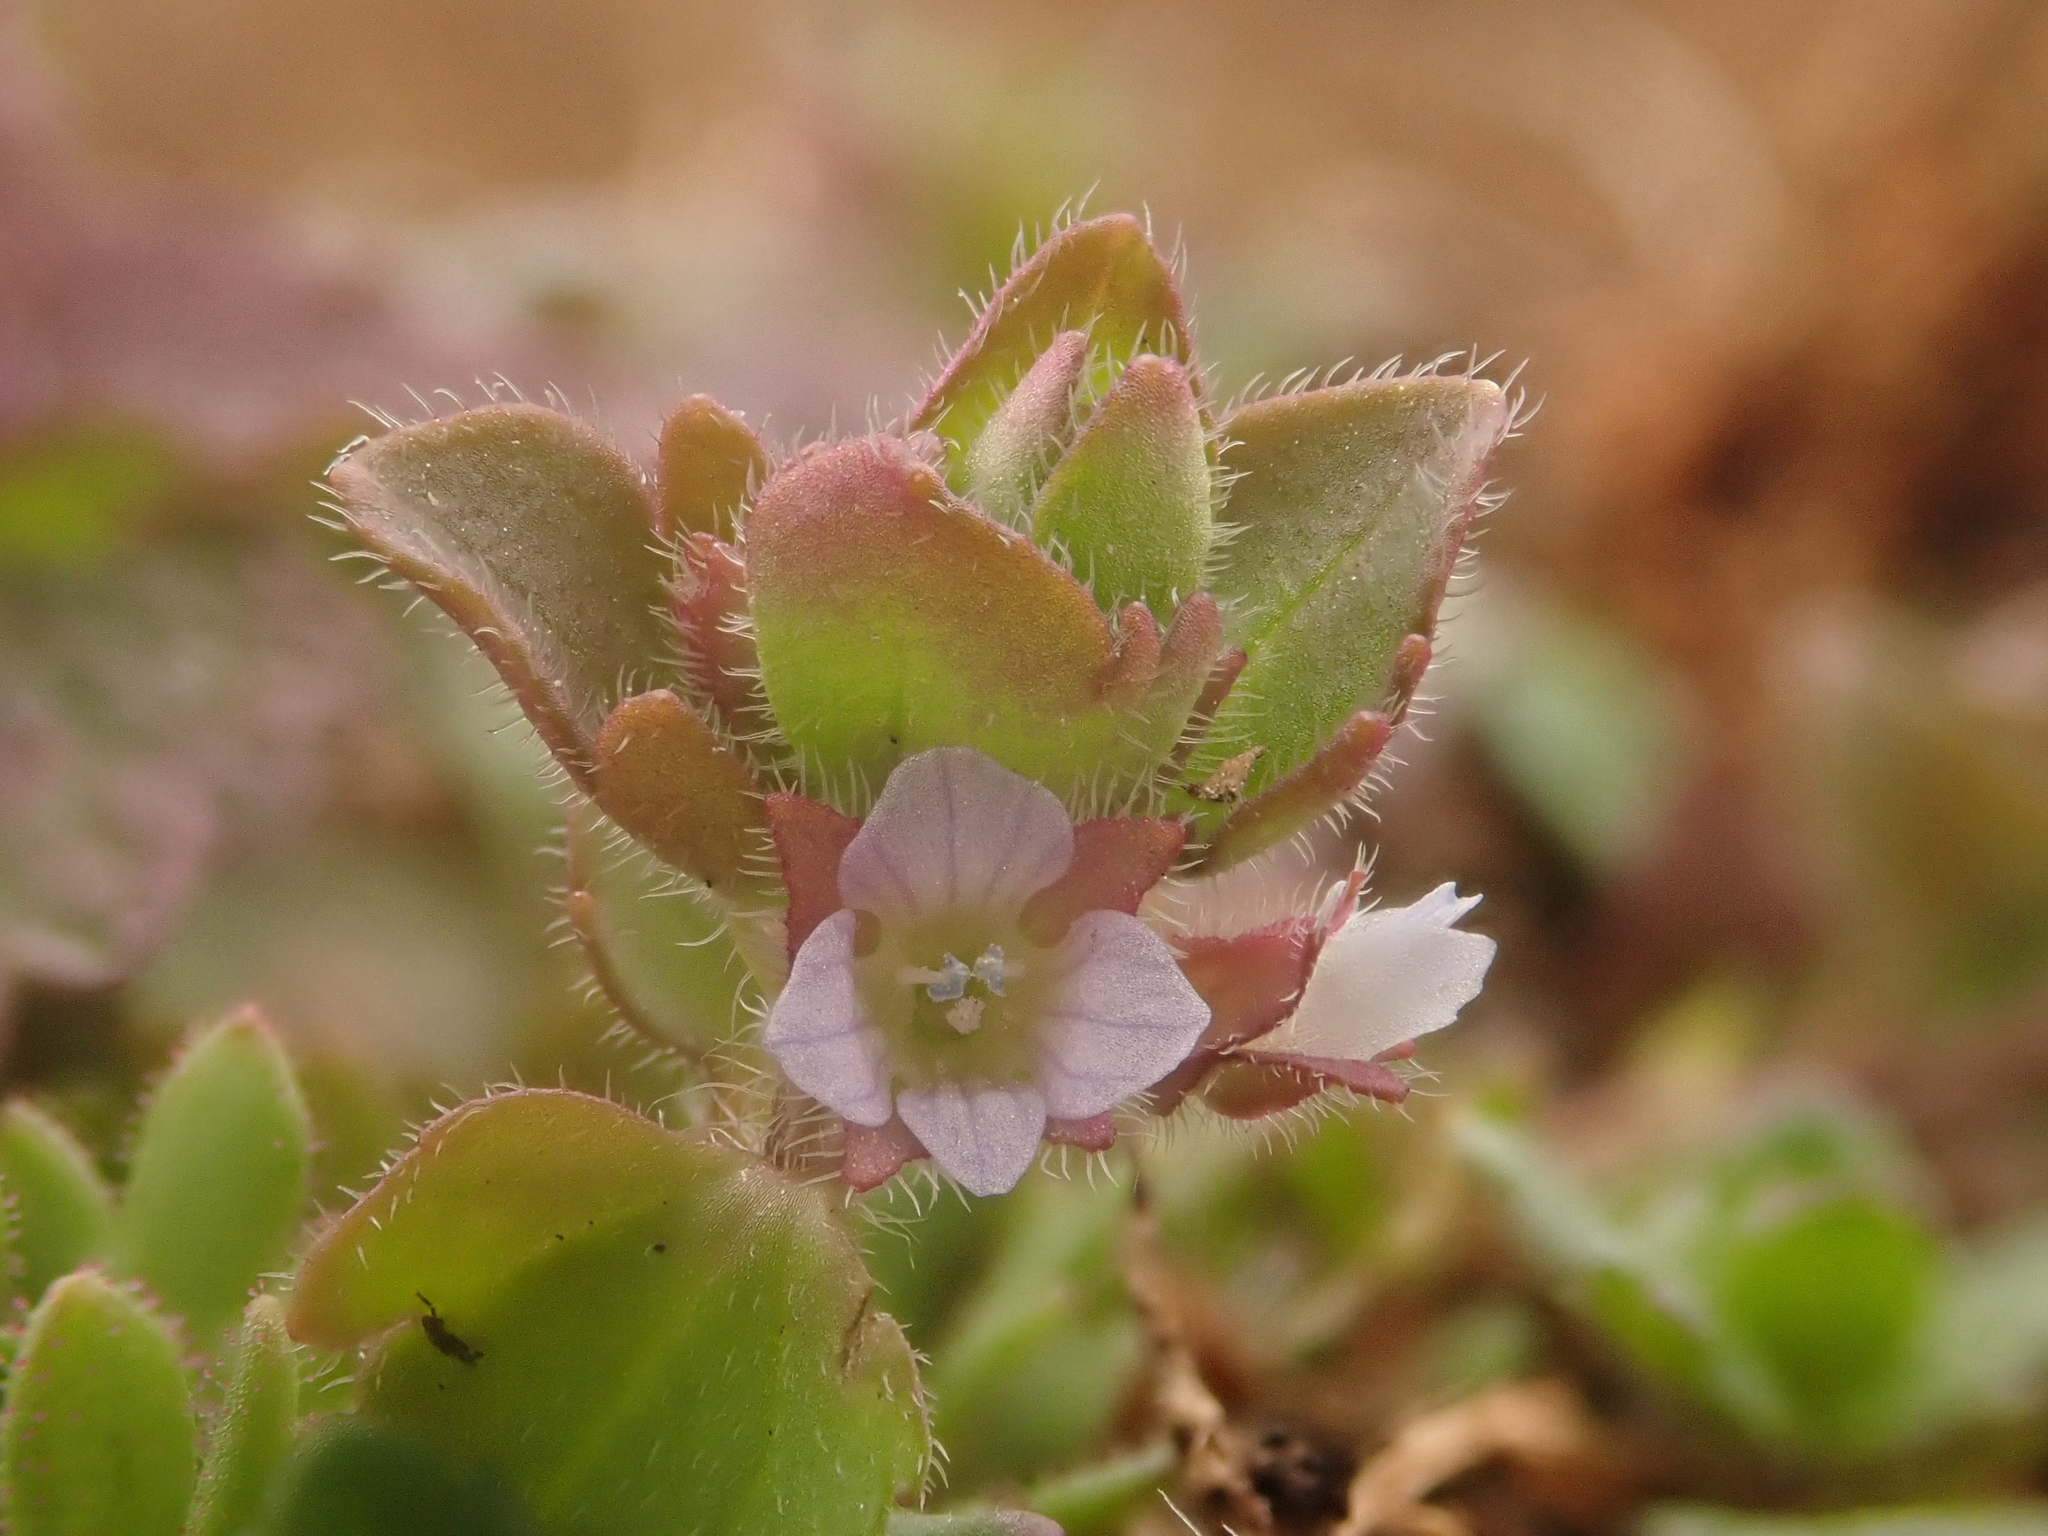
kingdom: Plantae
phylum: Tracheophyta
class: Magnoliopsida
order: Lamiales
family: Plantaginaceae
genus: Veronica
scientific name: Veronica sublobata
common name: False ivy-leaved speedwell
